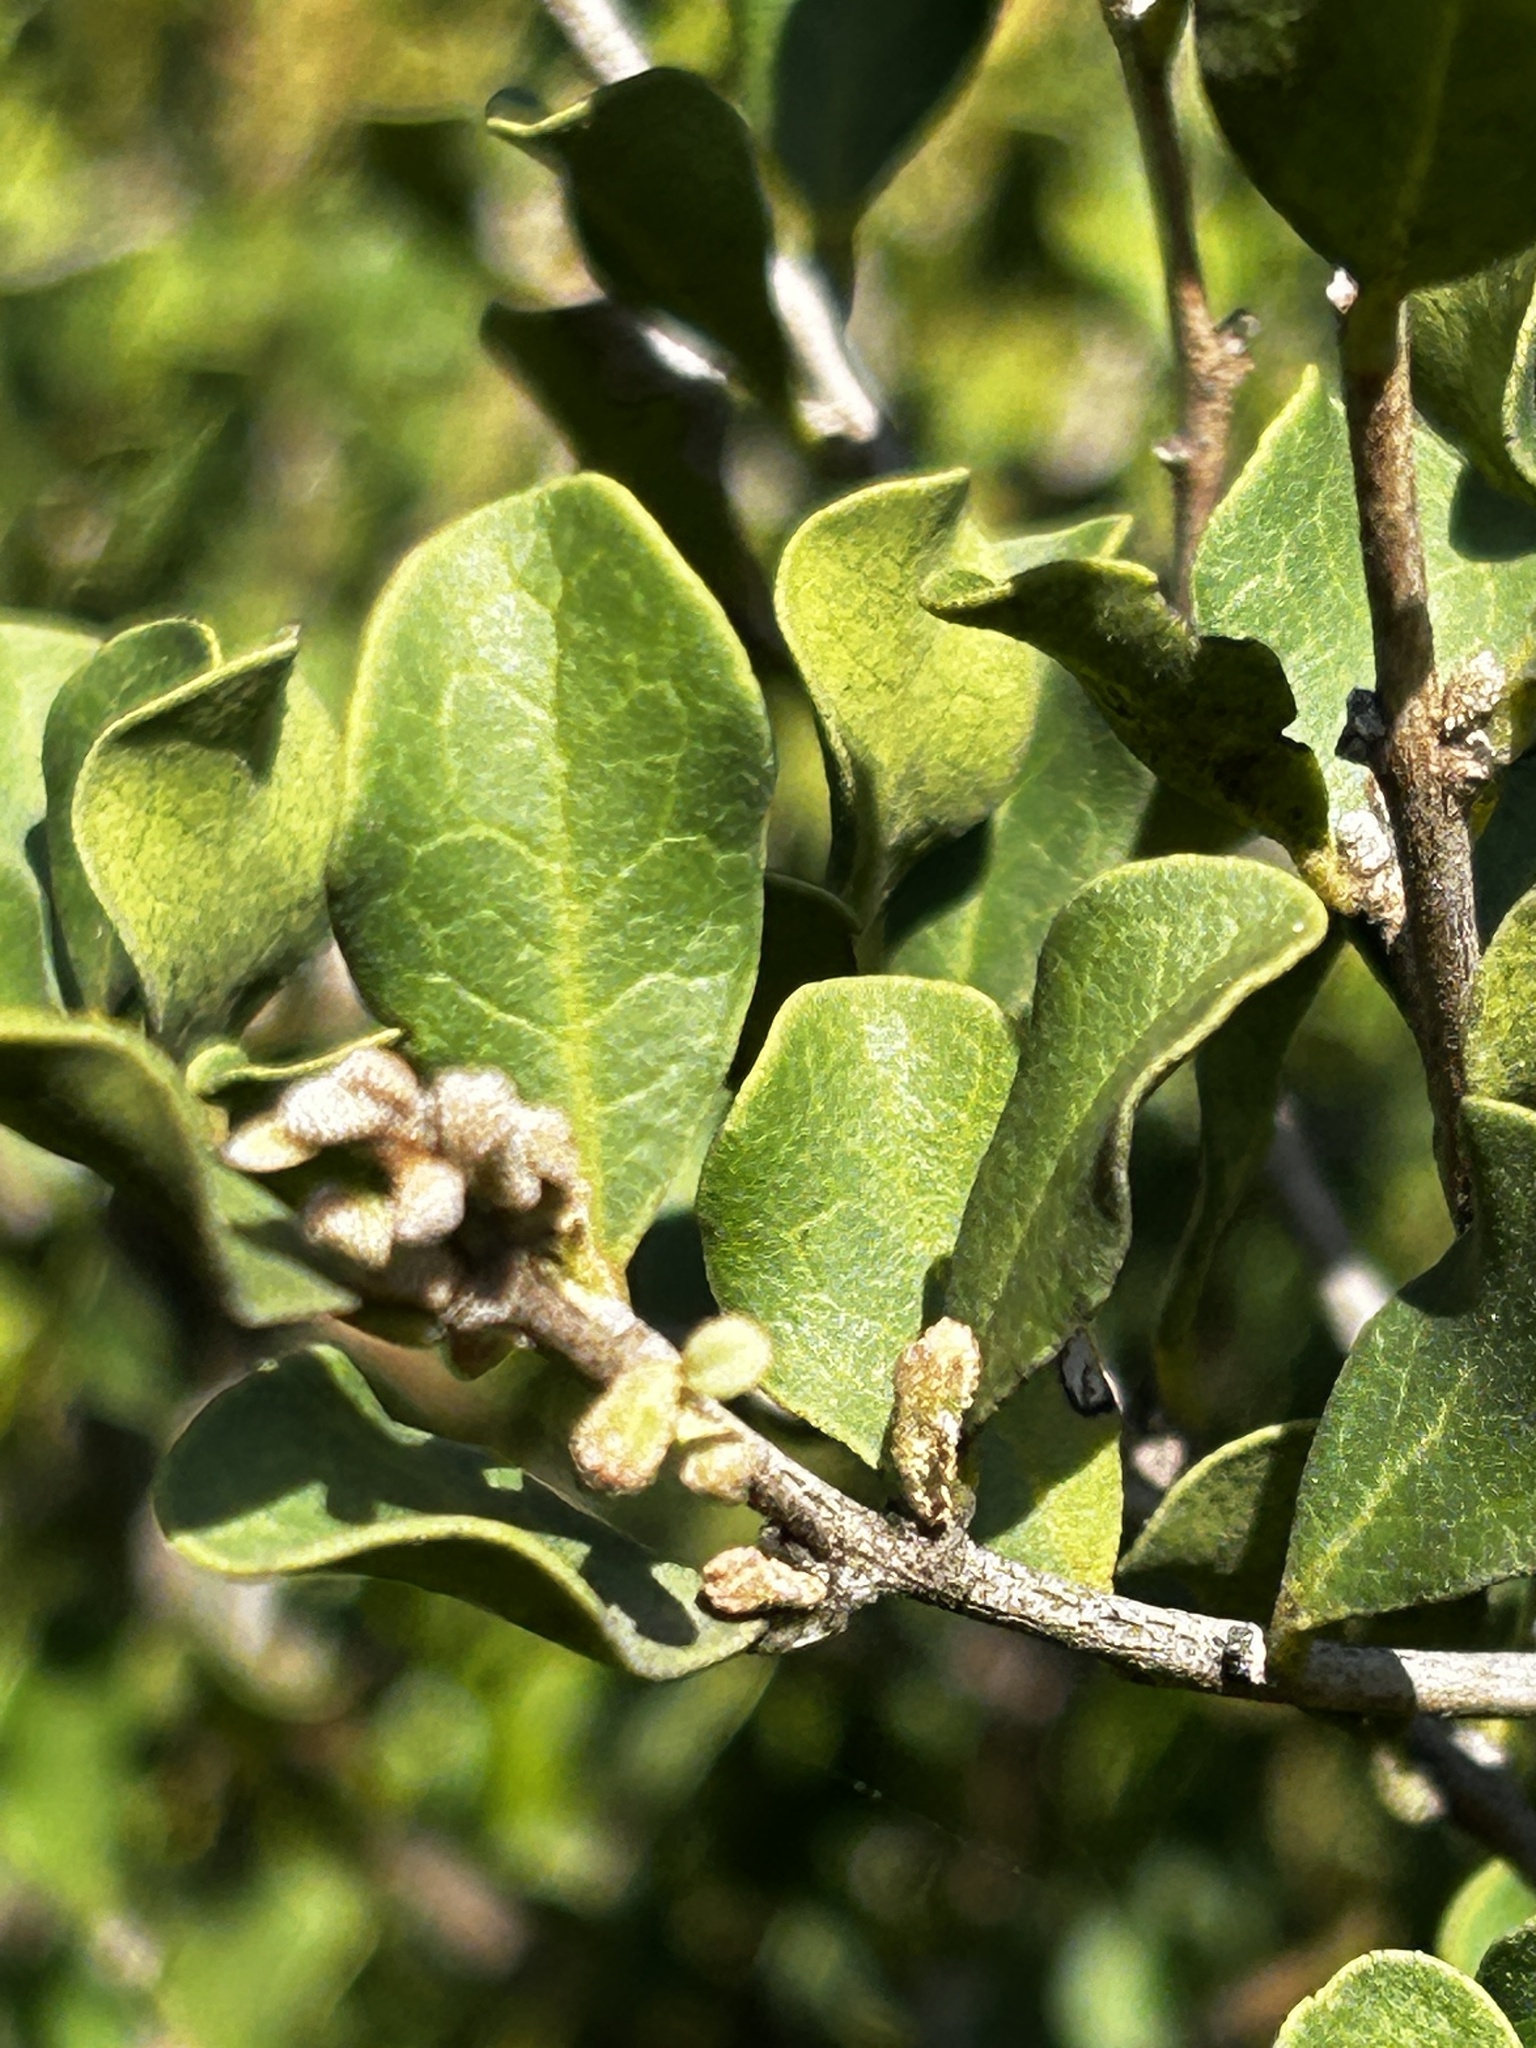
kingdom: Plantae
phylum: Tracheophyta
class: Magnoliopsida
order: Ericales
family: Ebenaceae
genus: Euclea
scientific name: Euclea undulata
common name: Small-leaved guarri
